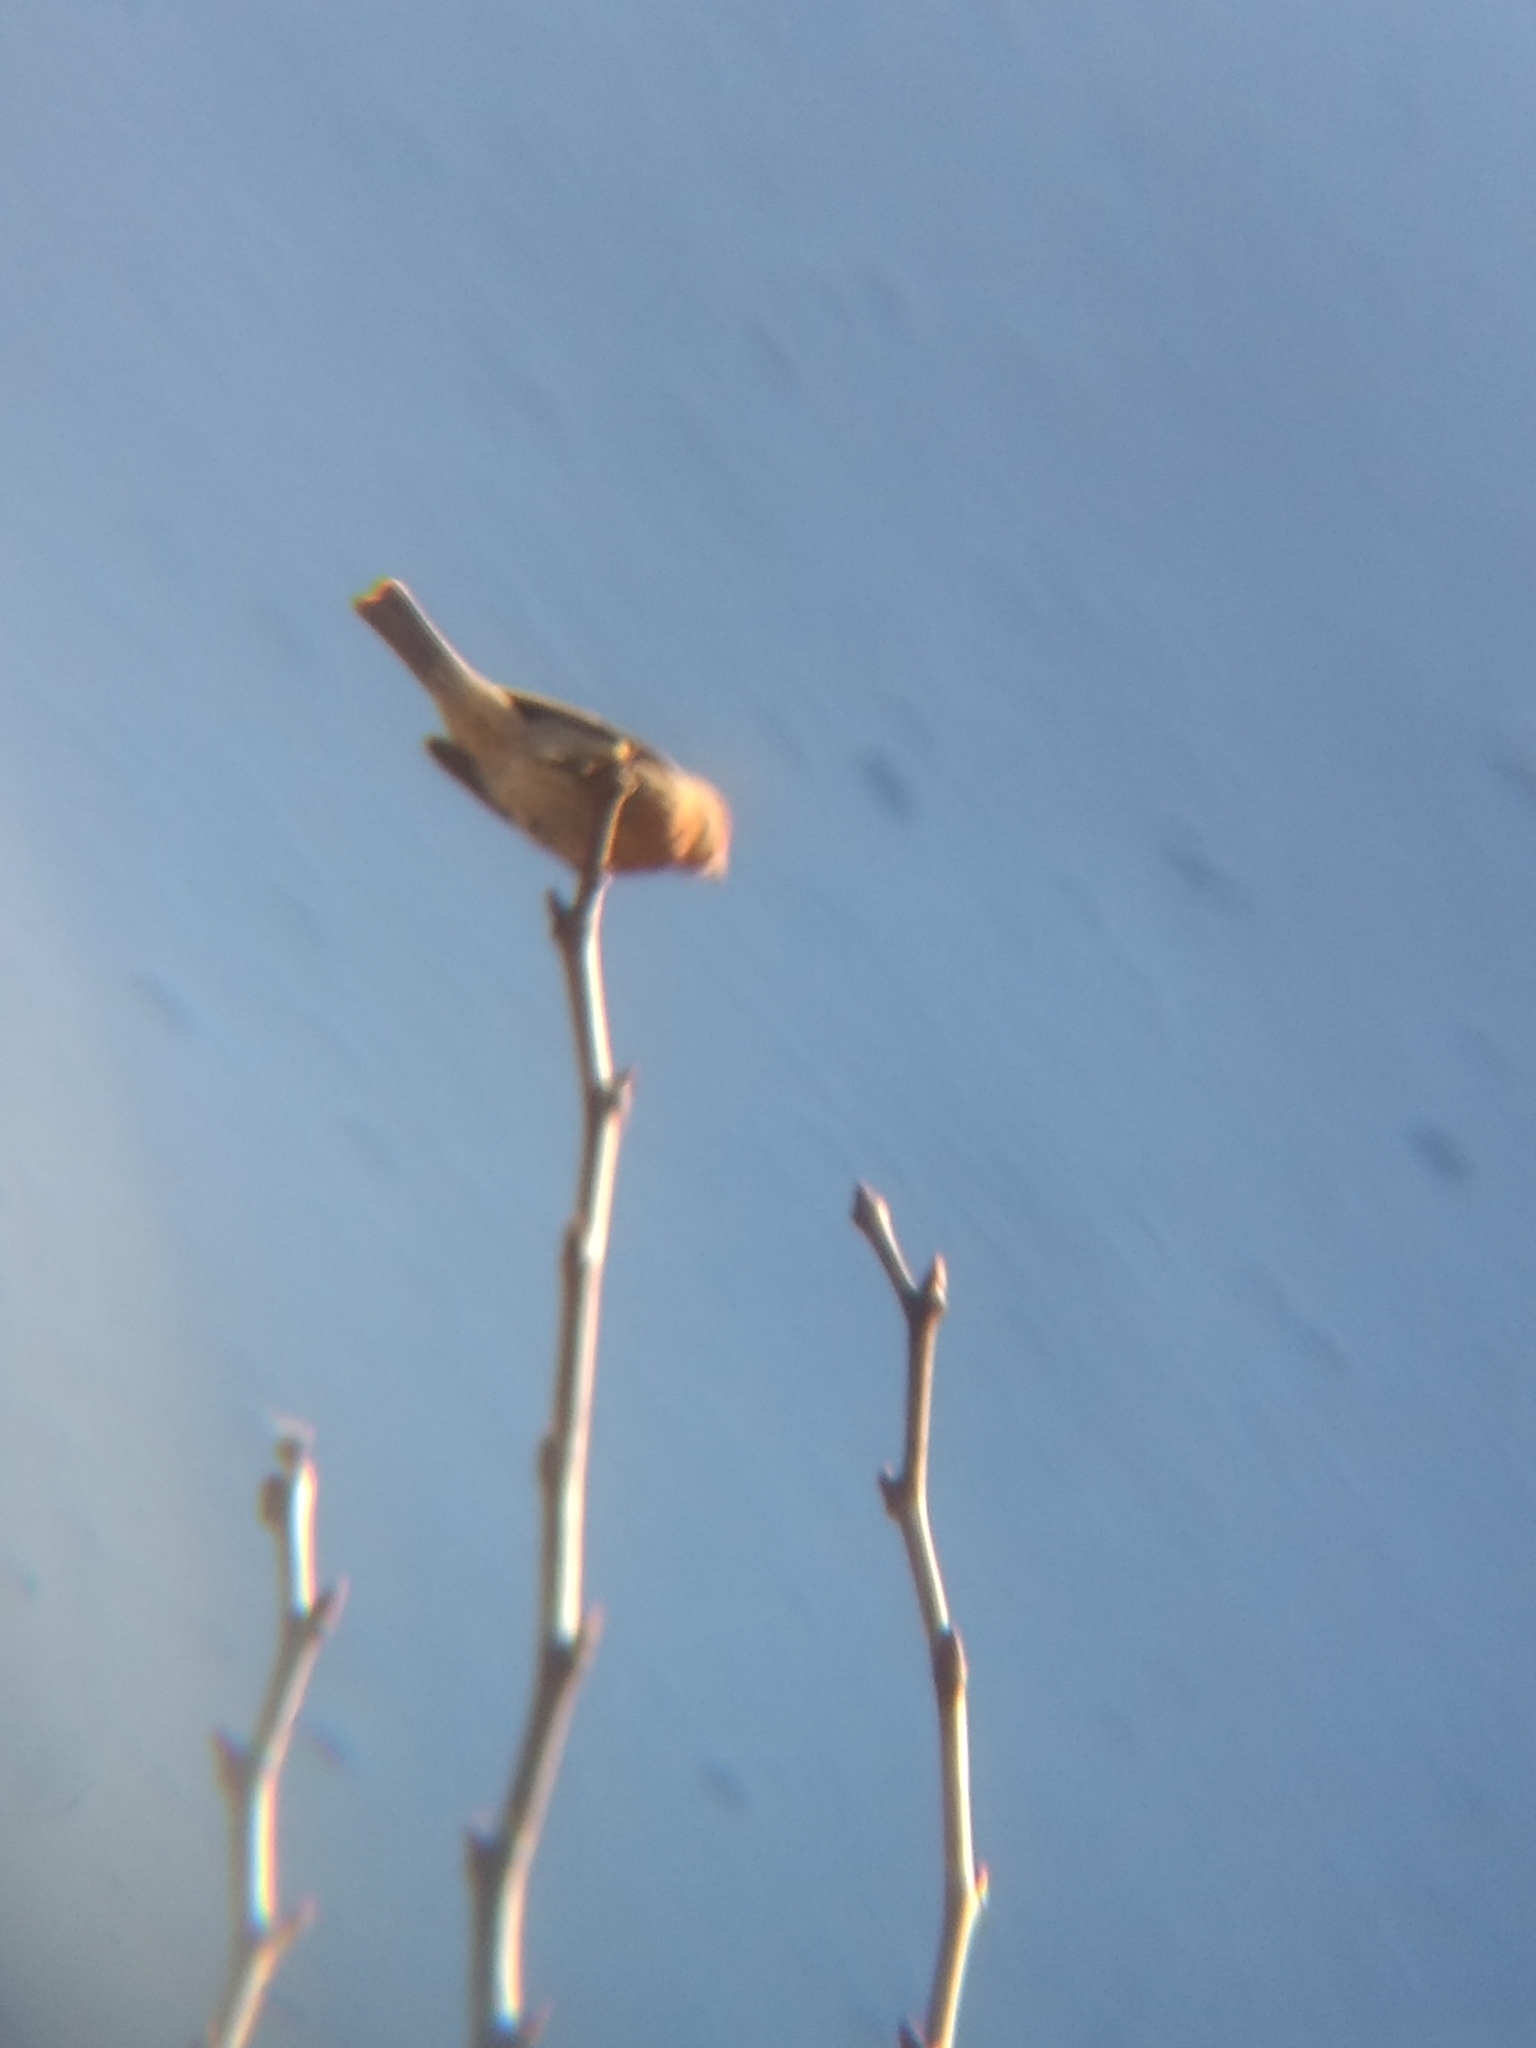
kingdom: Animalia
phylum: Chordata
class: Aves
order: Passeriformes
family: Fringillidae
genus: Haemorhous
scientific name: Haemorhous mexicanus
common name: House finch
